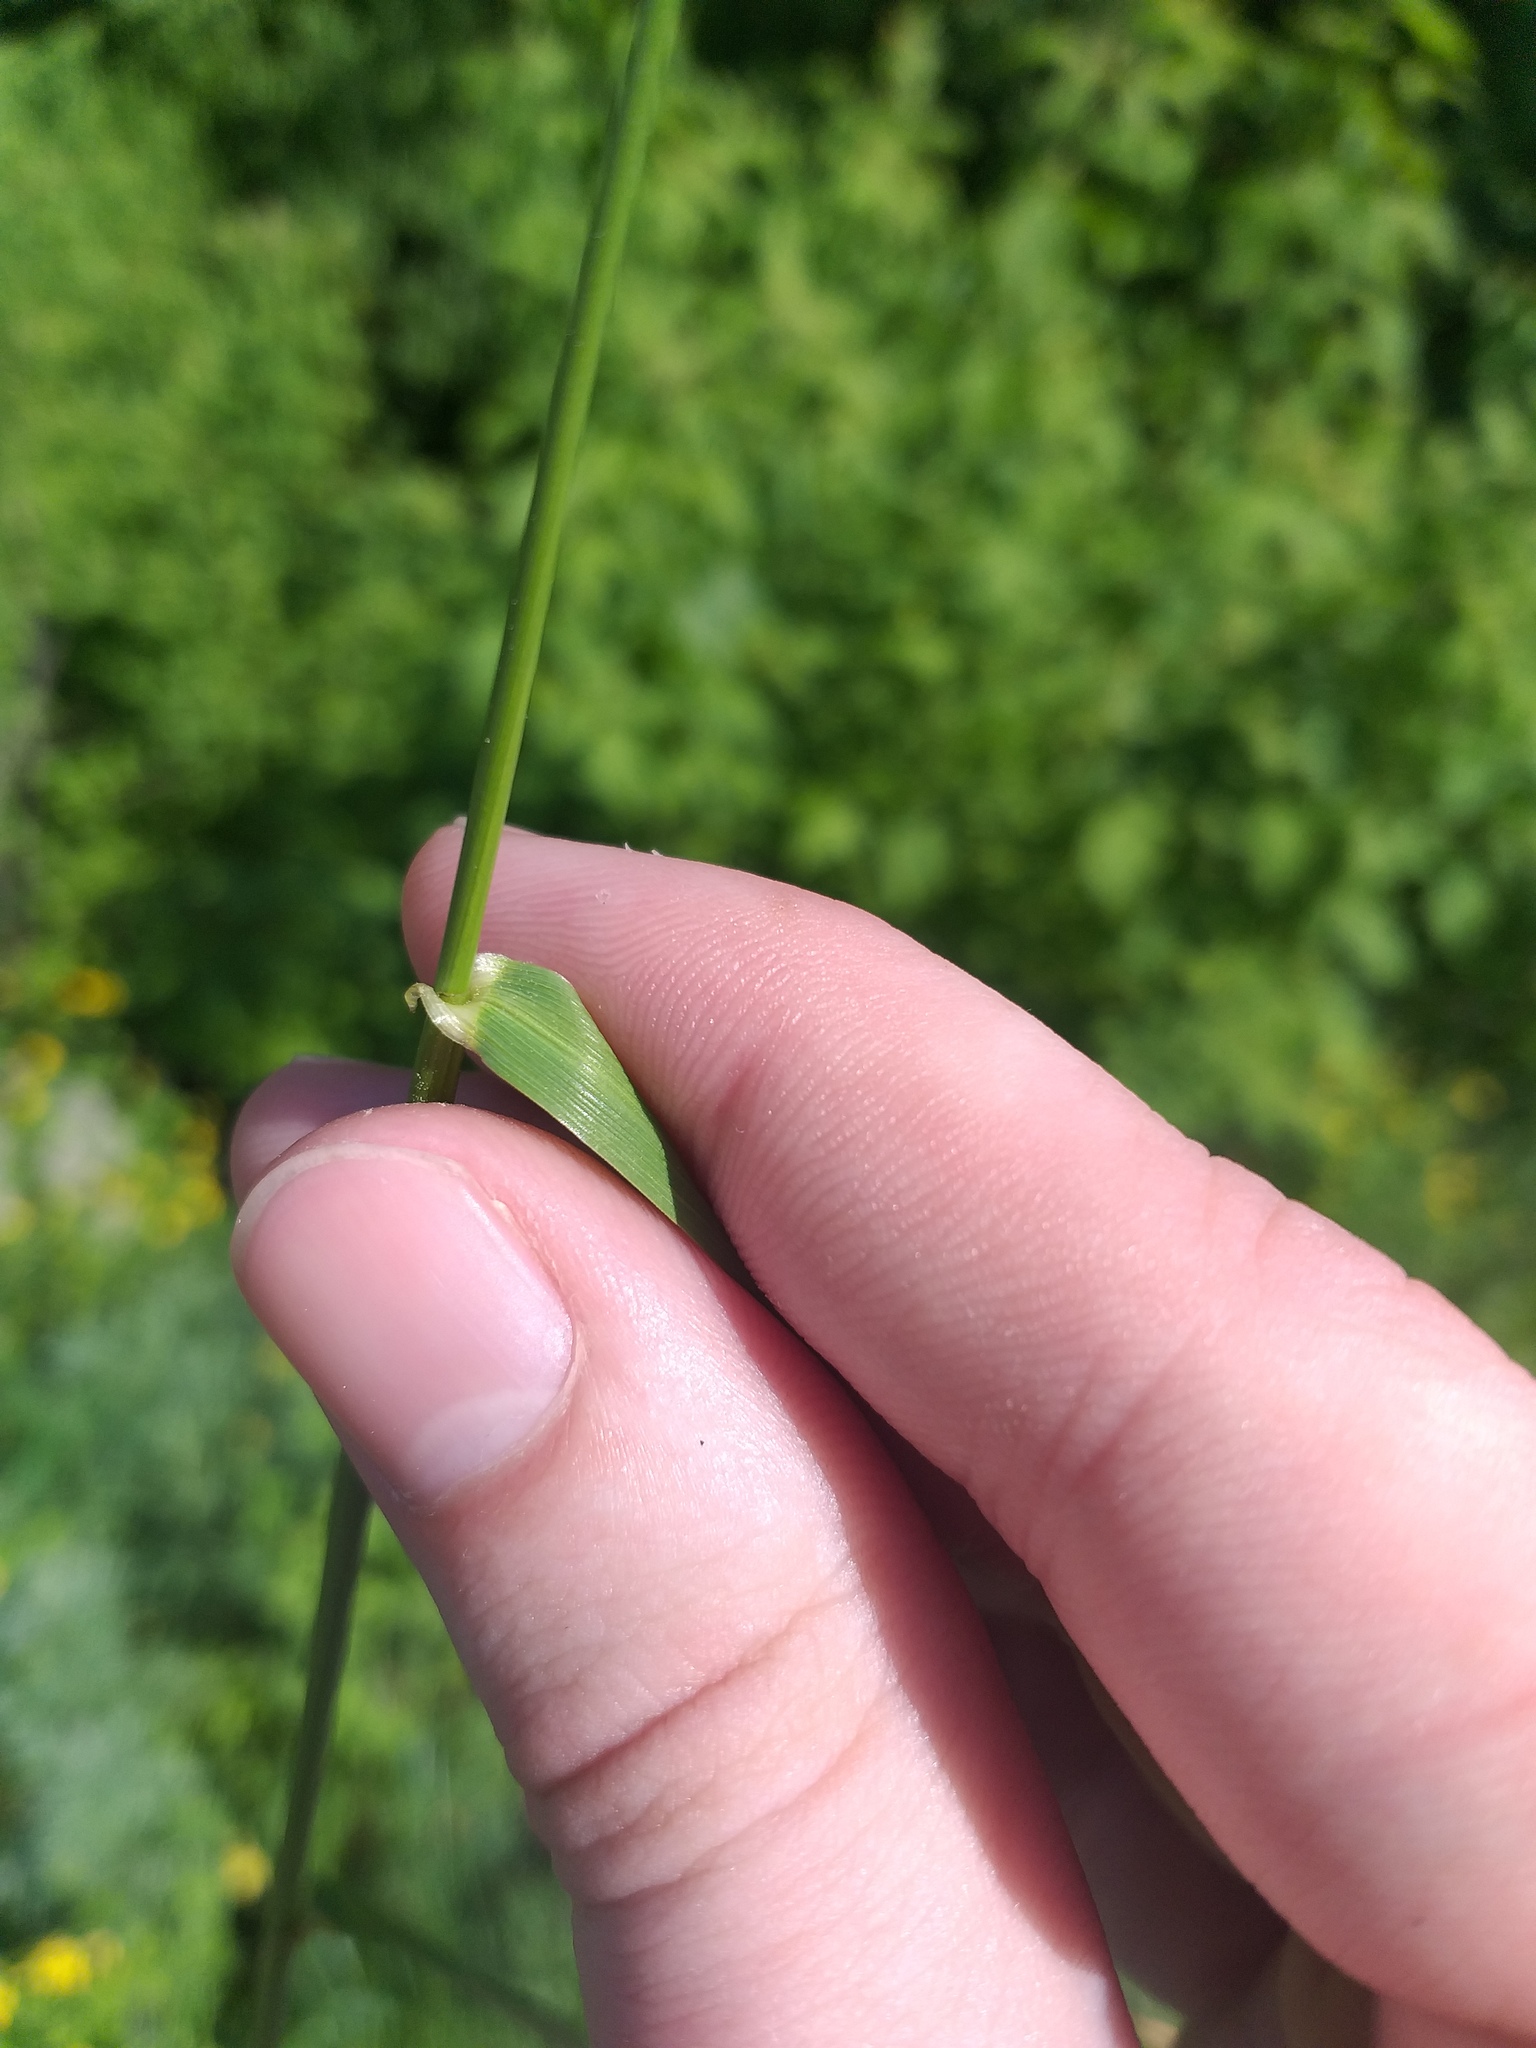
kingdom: Plantae
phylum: Tracheophyta
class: Liliopsida
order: Poales
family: Poaceae
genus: Lolium
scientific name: Lolium giganteum
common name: Giant fescue
